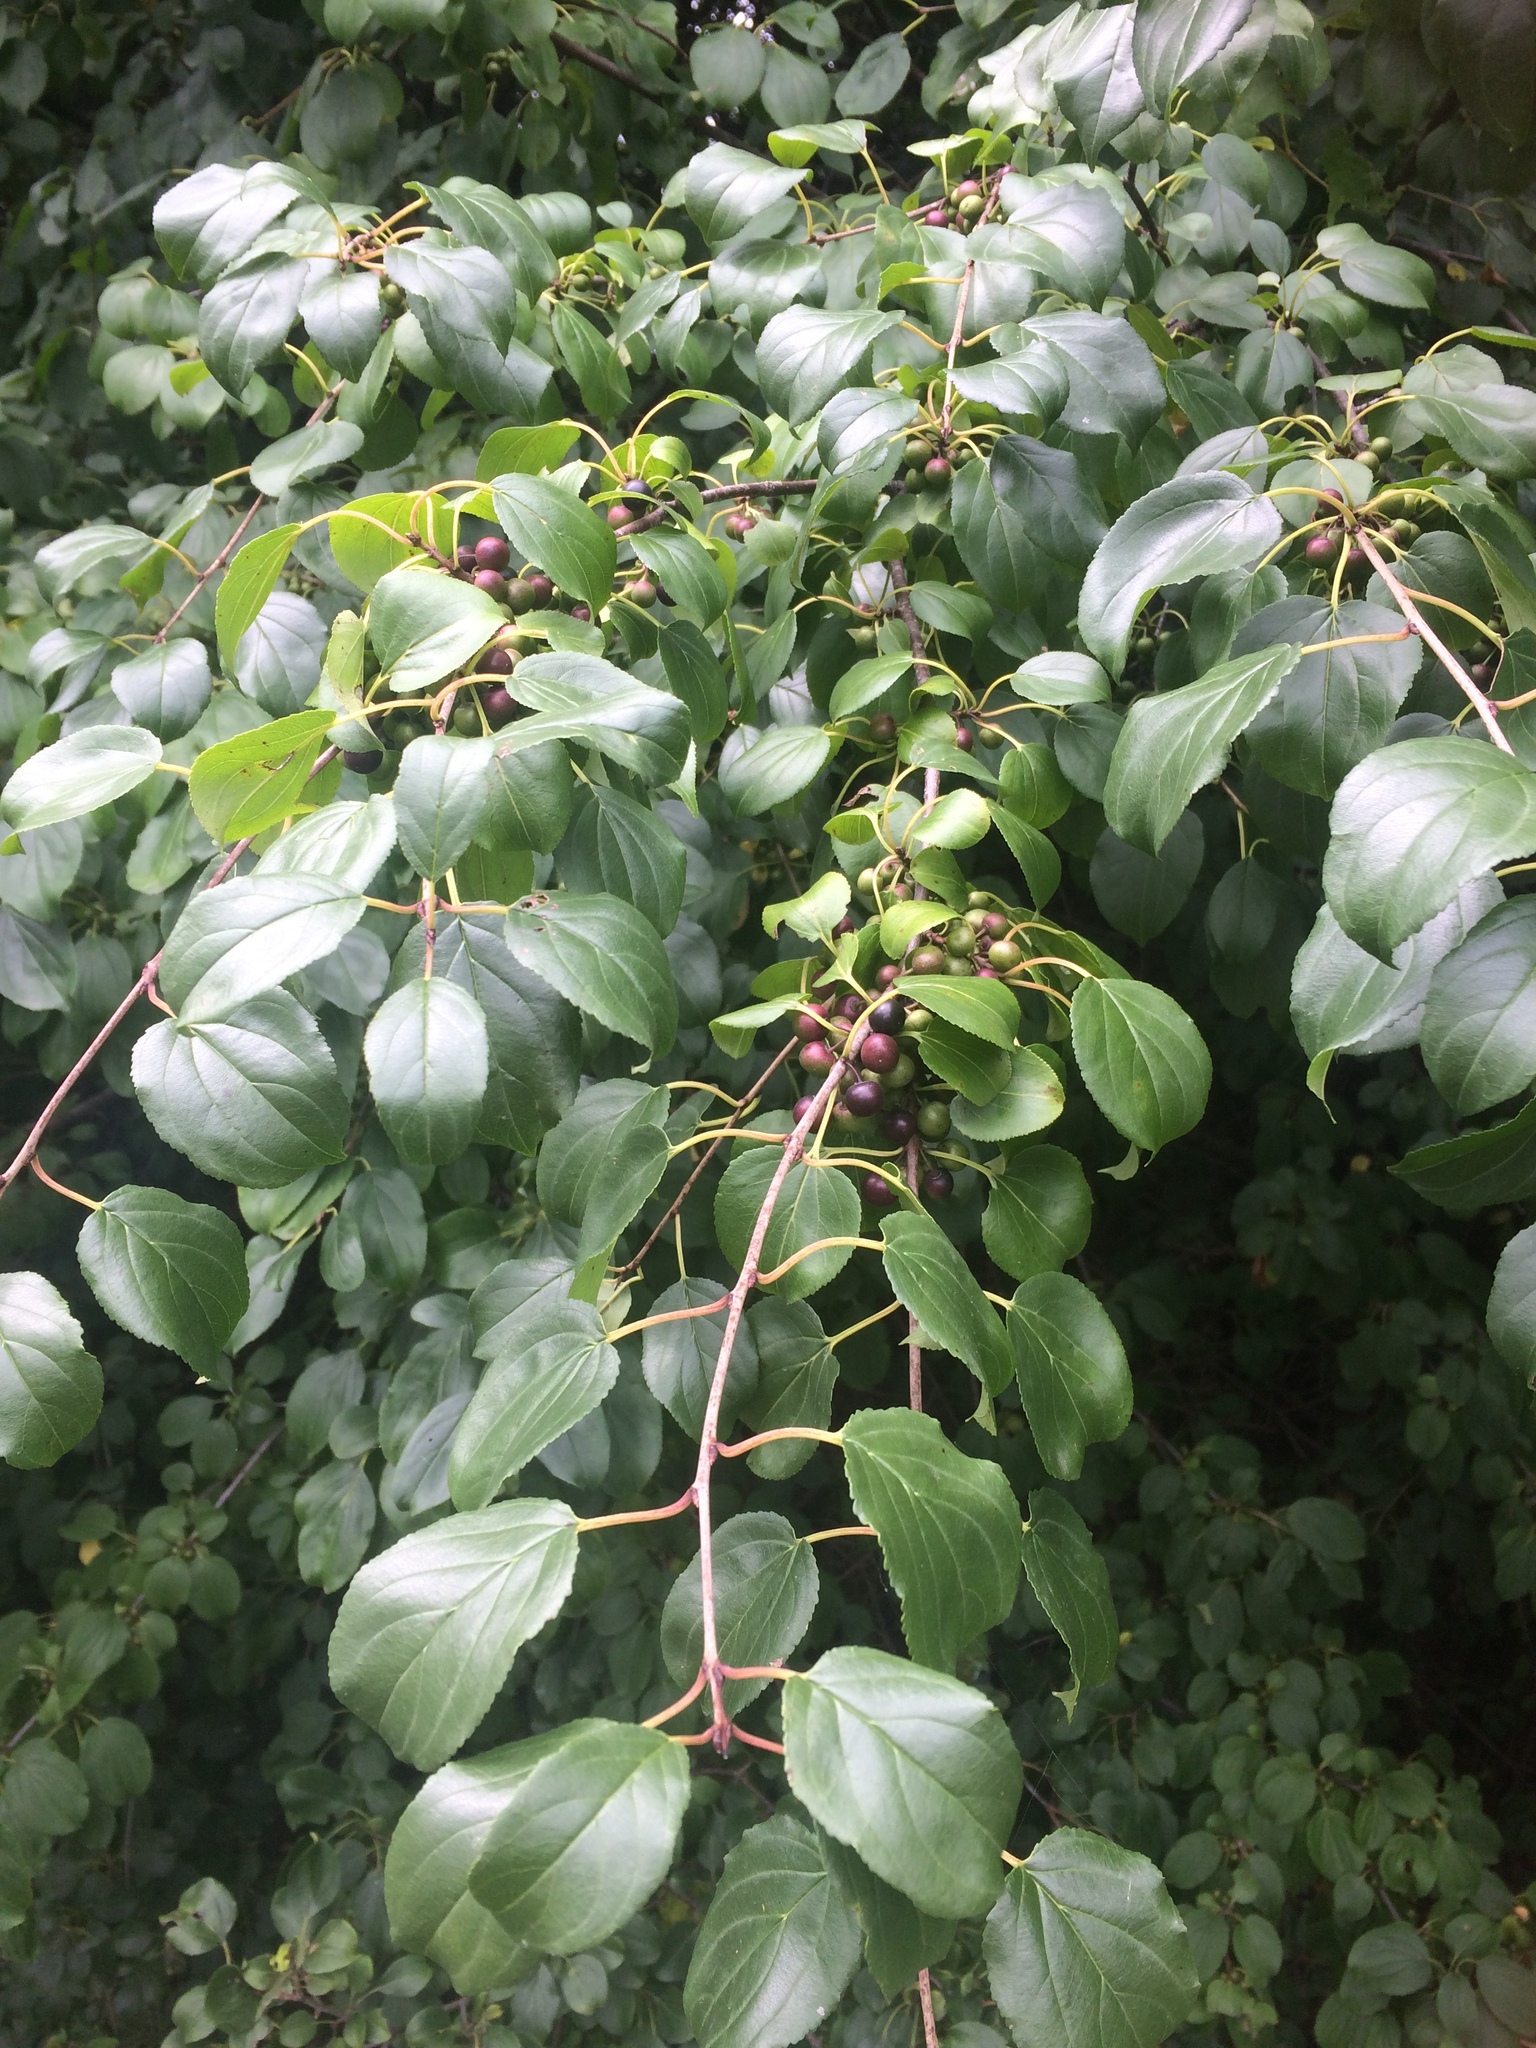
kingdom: Plantae
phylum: Tracheophyta
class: Magnoliopsida
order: Rosales
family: Rhamnaceae
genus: Rhamnus
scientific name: Rhamnus cathartica
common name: Common buckthorn
